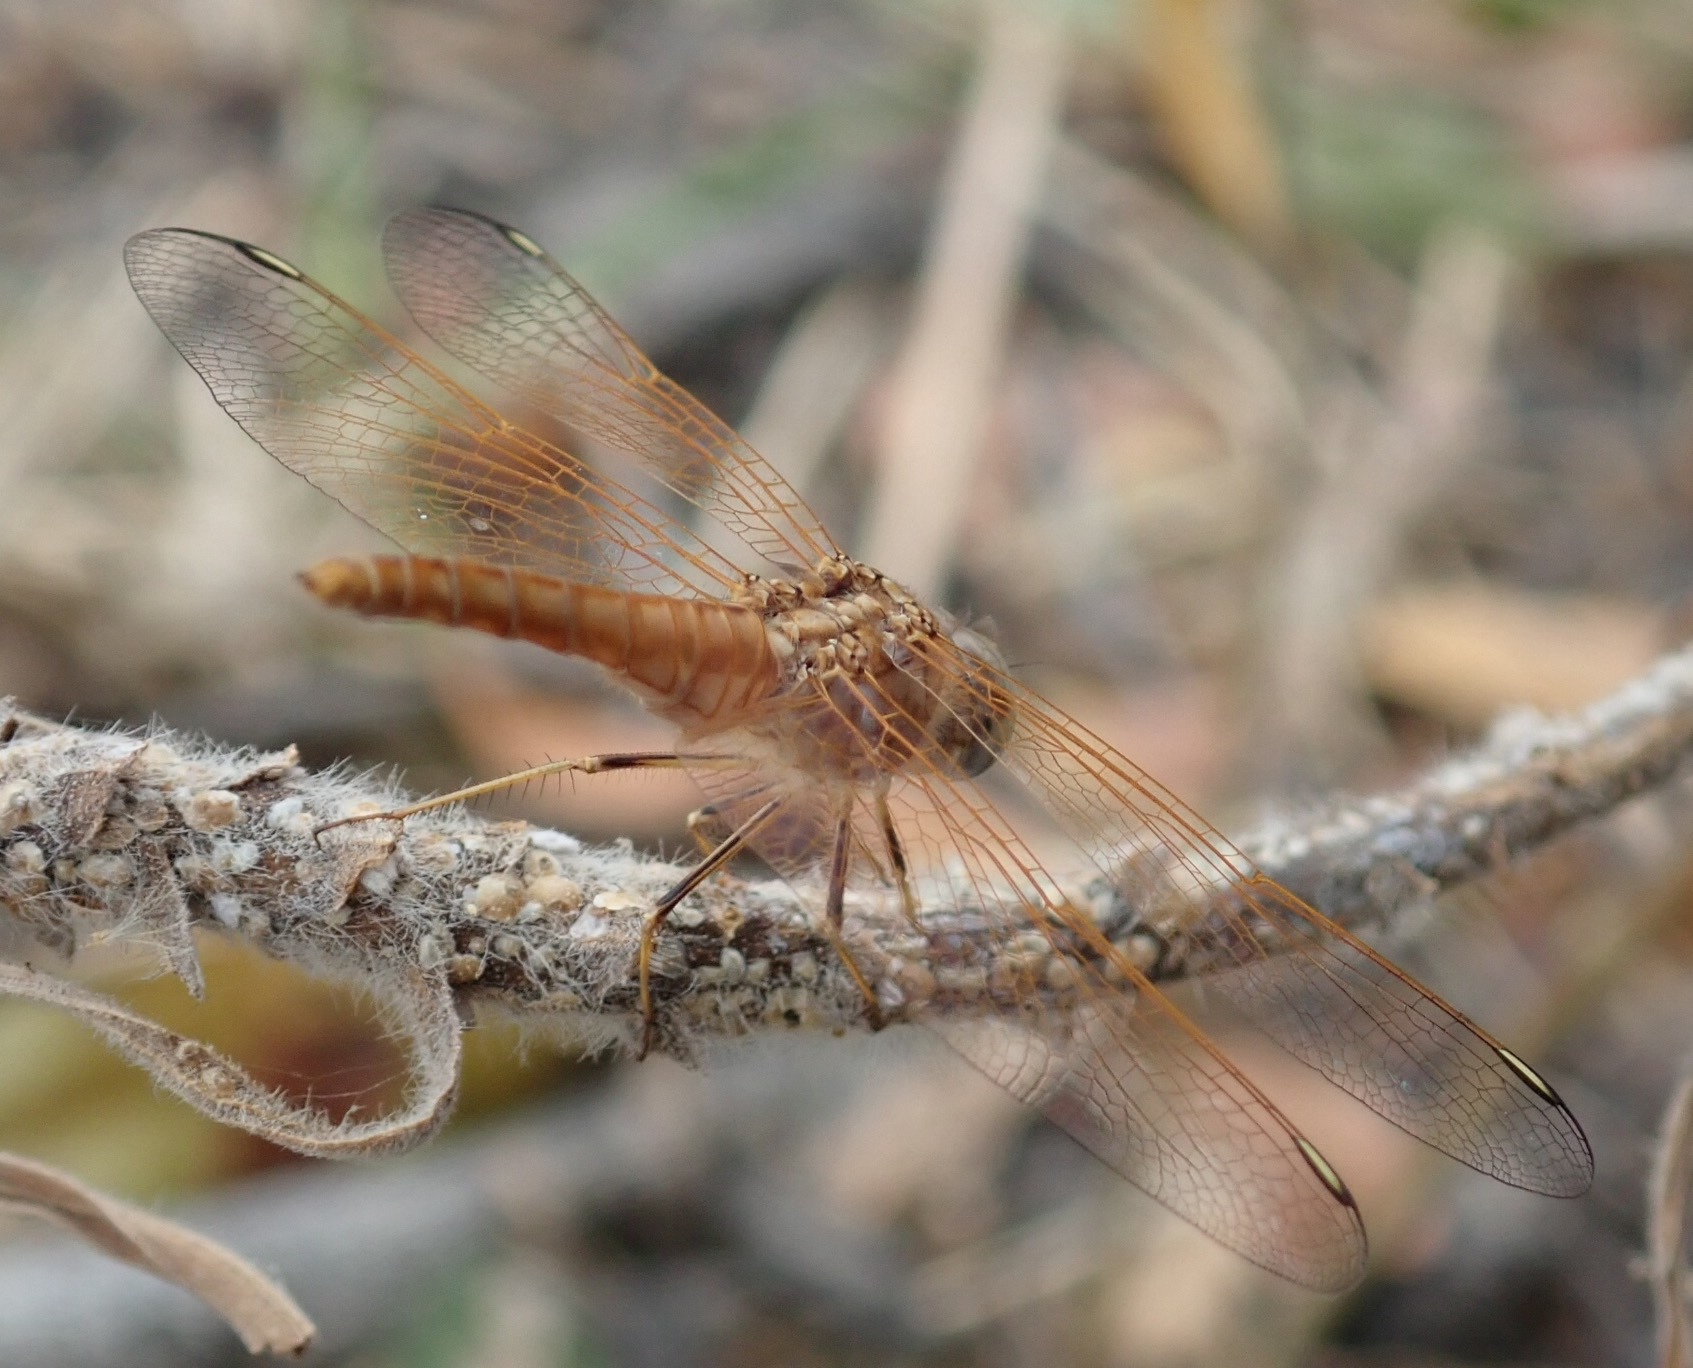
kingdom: Animalia
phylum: Arthropoda
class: Insecta
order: Odonata
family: Libellulidae
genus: Brachythemis
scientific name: Brachythemis lacustris
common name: Red groundling
